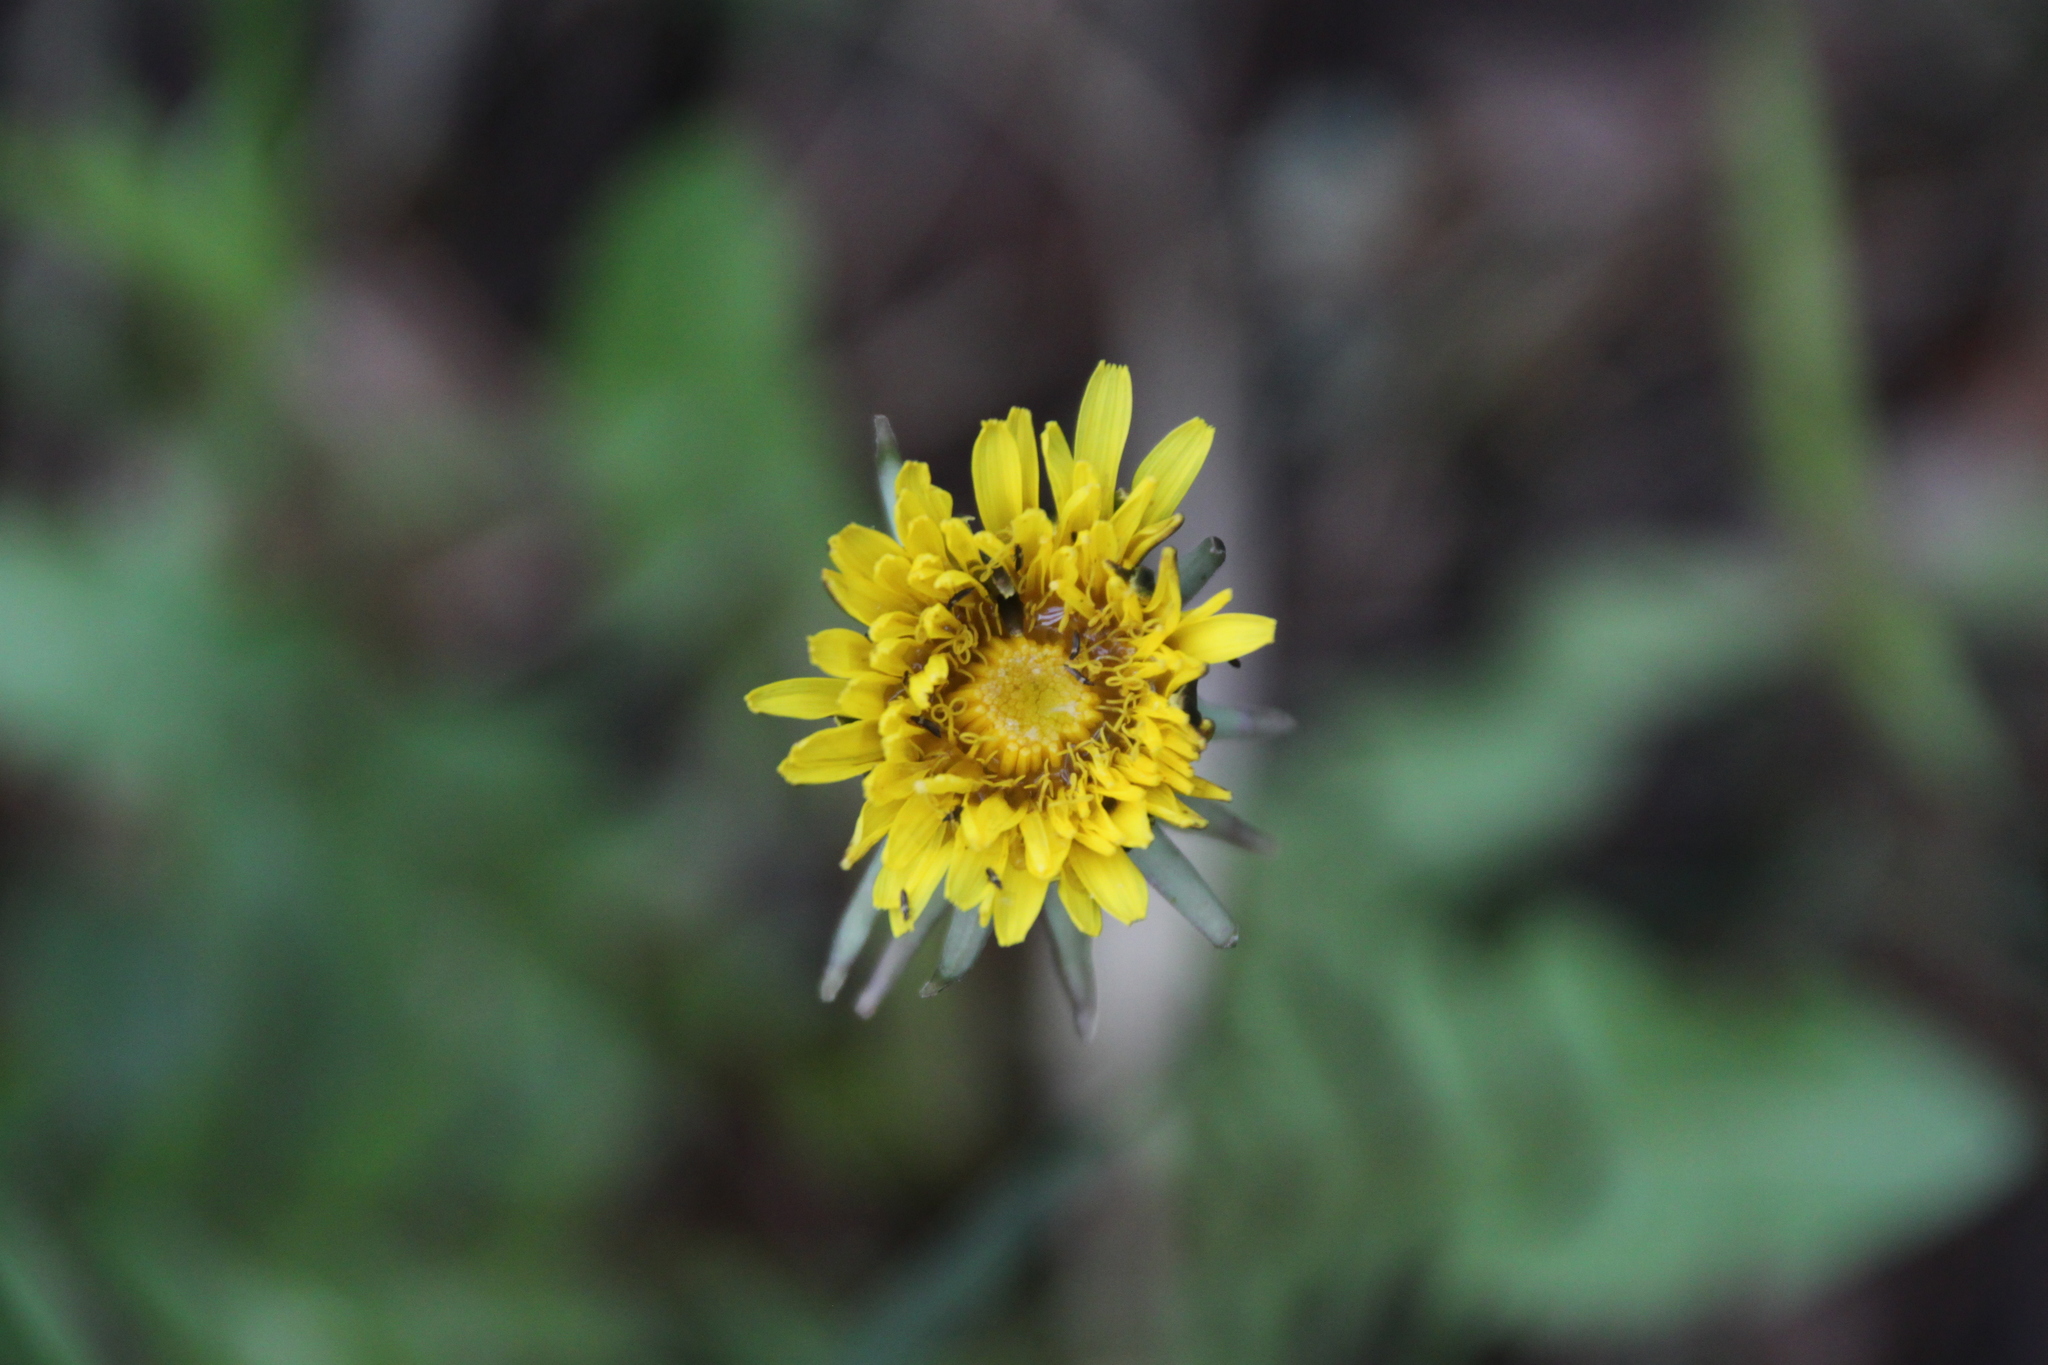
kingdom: Plantae
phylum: Tracheophyta
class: Magnoliopsida
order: Asterales
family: Asteraceae
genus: Taraxacum
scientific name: Taraxacum officinale
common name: Common dandelion
